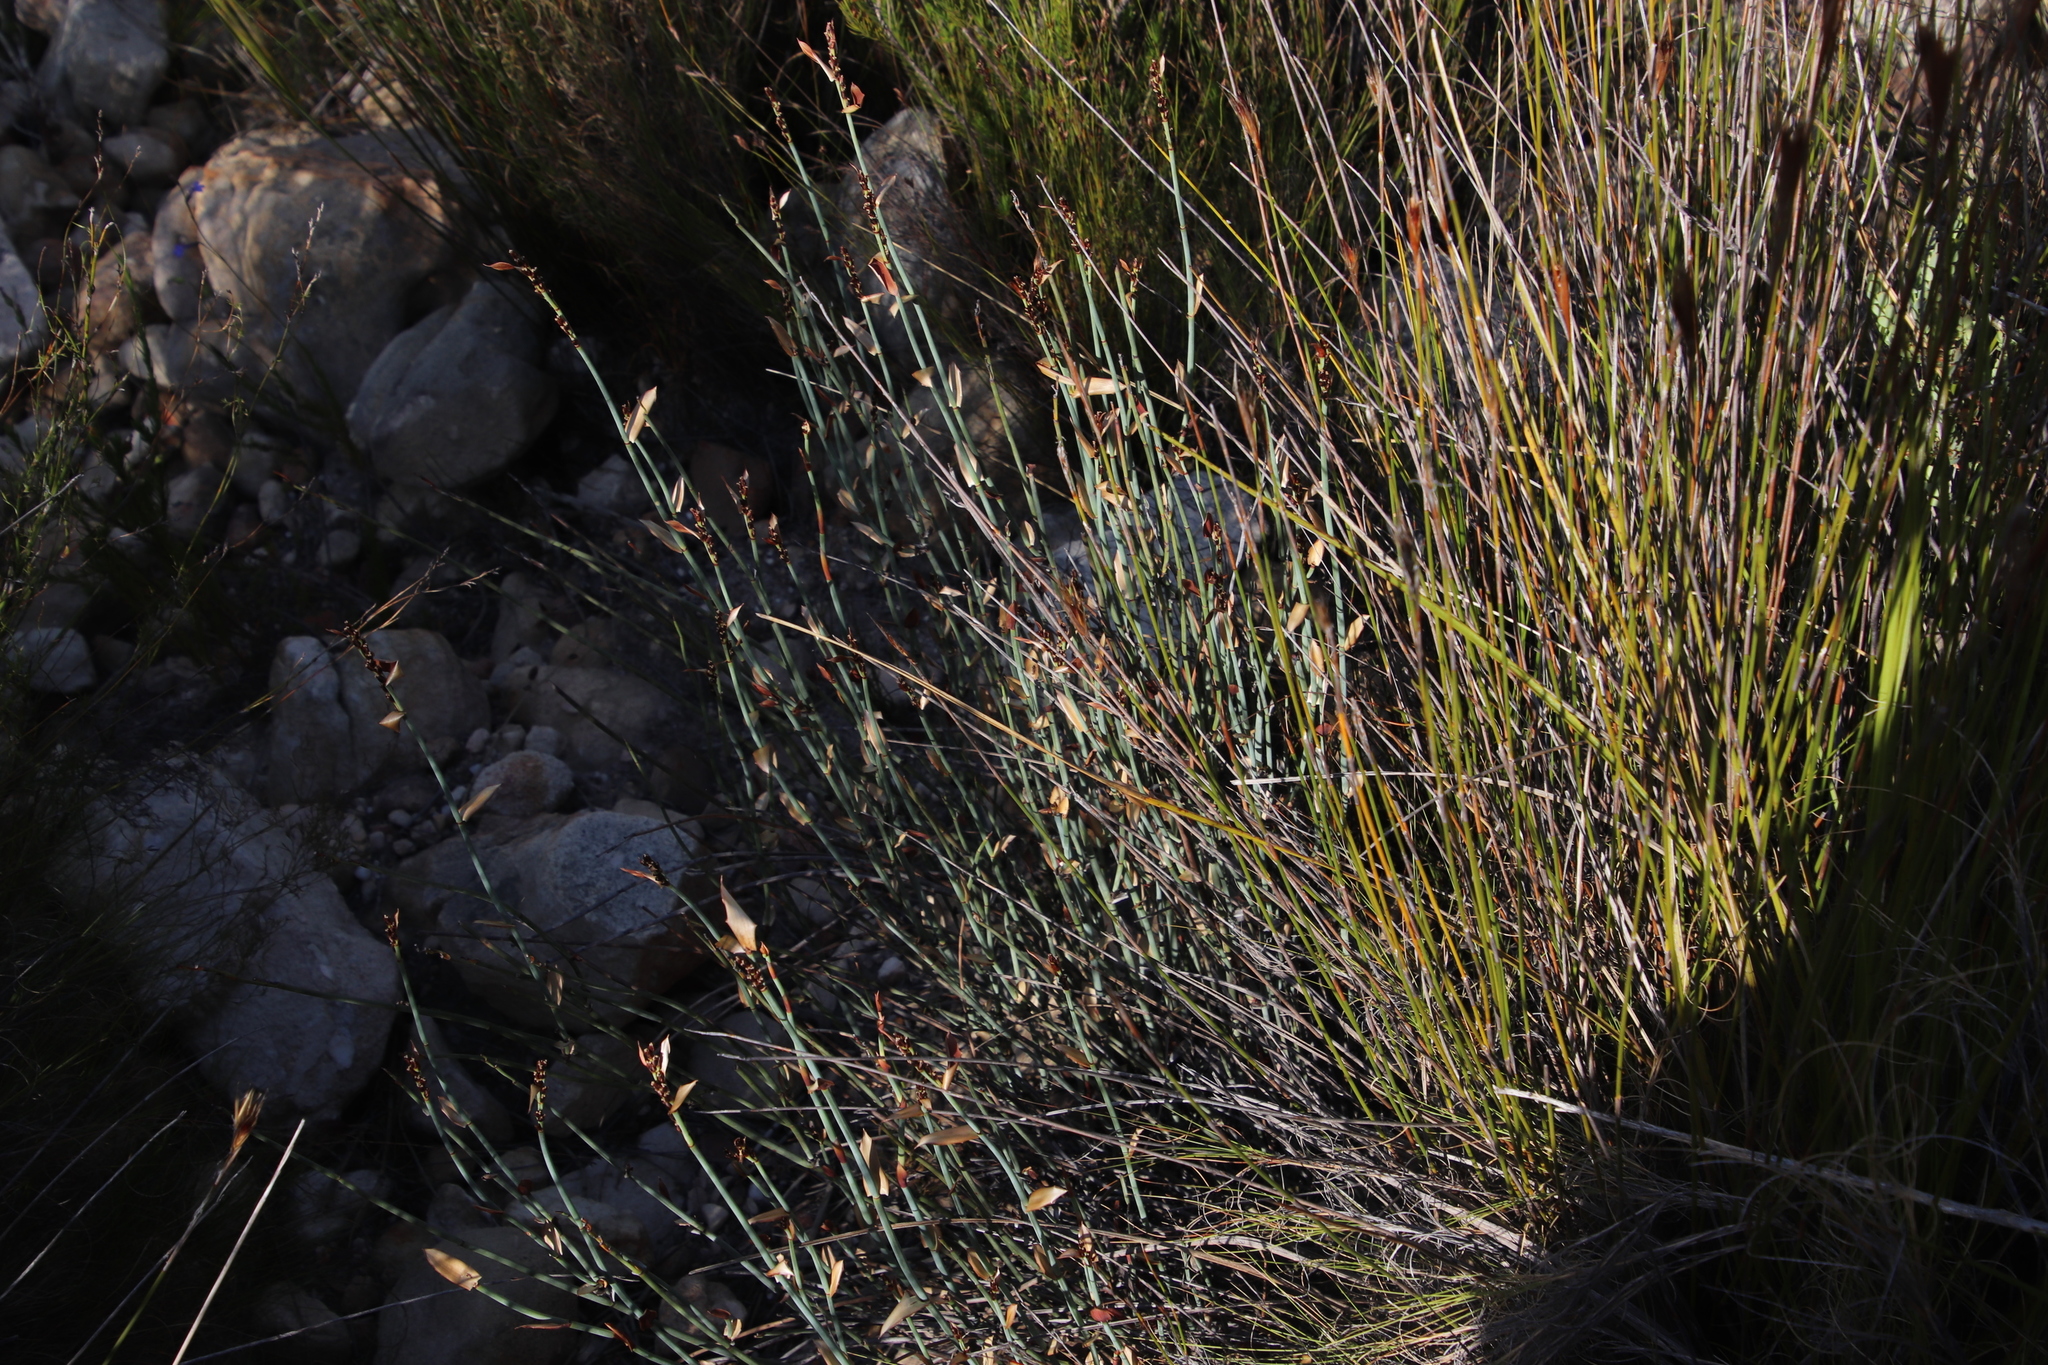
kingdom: Plantae
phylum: Tracheophyta
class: Liliopsida
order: Poales
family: Restionaceae
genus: Elegia
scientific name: Elegia hutchinsonii
